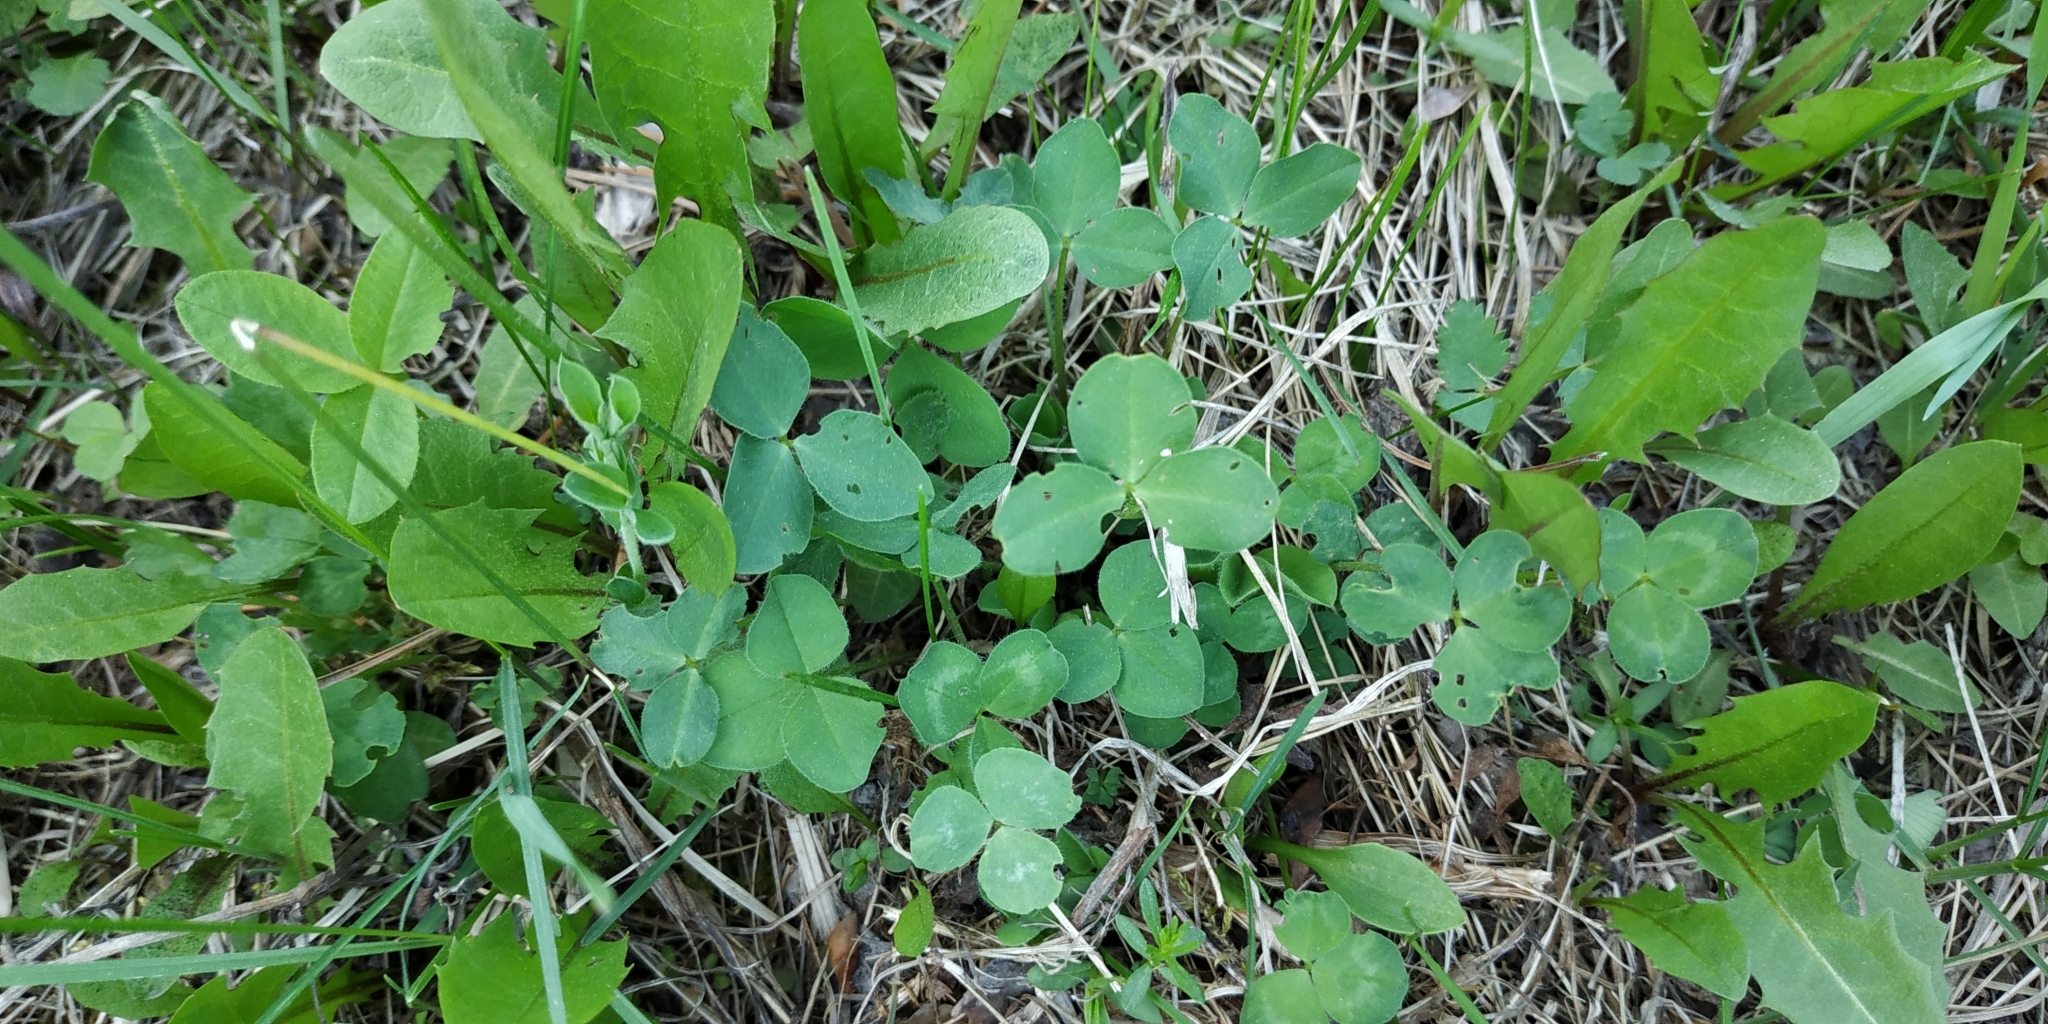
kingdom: Plantae
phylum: Tracheophyta
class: Magnoliopsida
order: Fabales
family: Fabaceae
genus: Trifolium
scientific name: Trifolium repens
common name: White clover
